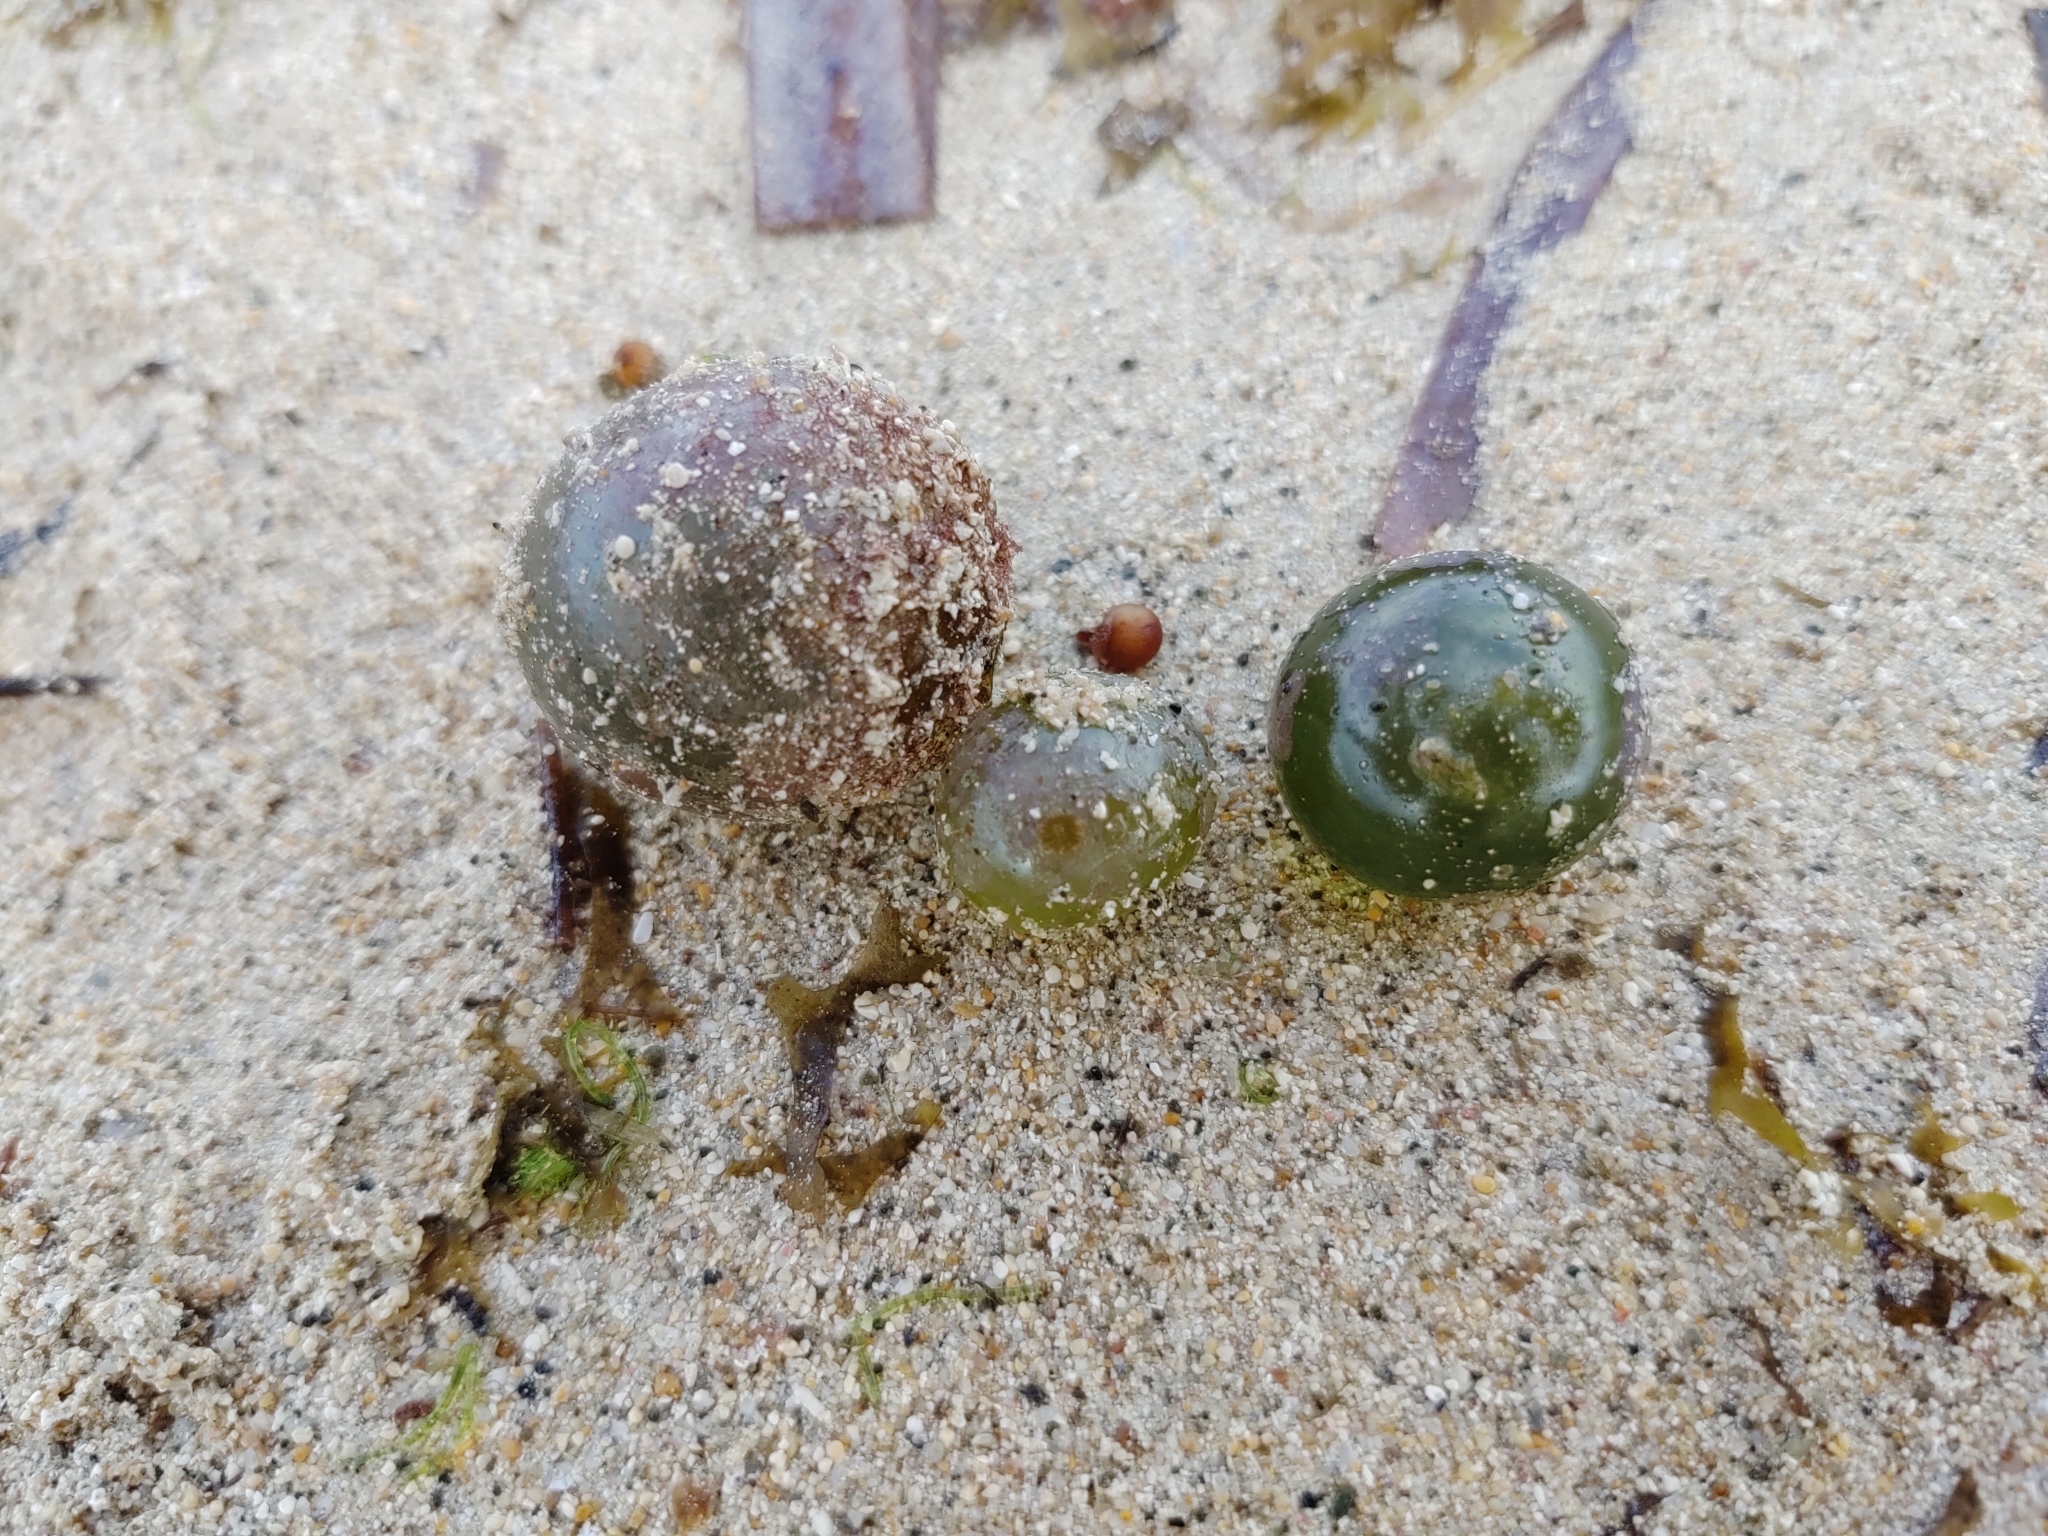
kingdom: Plantae
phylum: Chlorophyta
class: Ulvophyceae
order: Siphonocladales
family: Valoniaceae
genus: Valonia
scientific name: Valonia ventricosa
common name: Sea pearl
